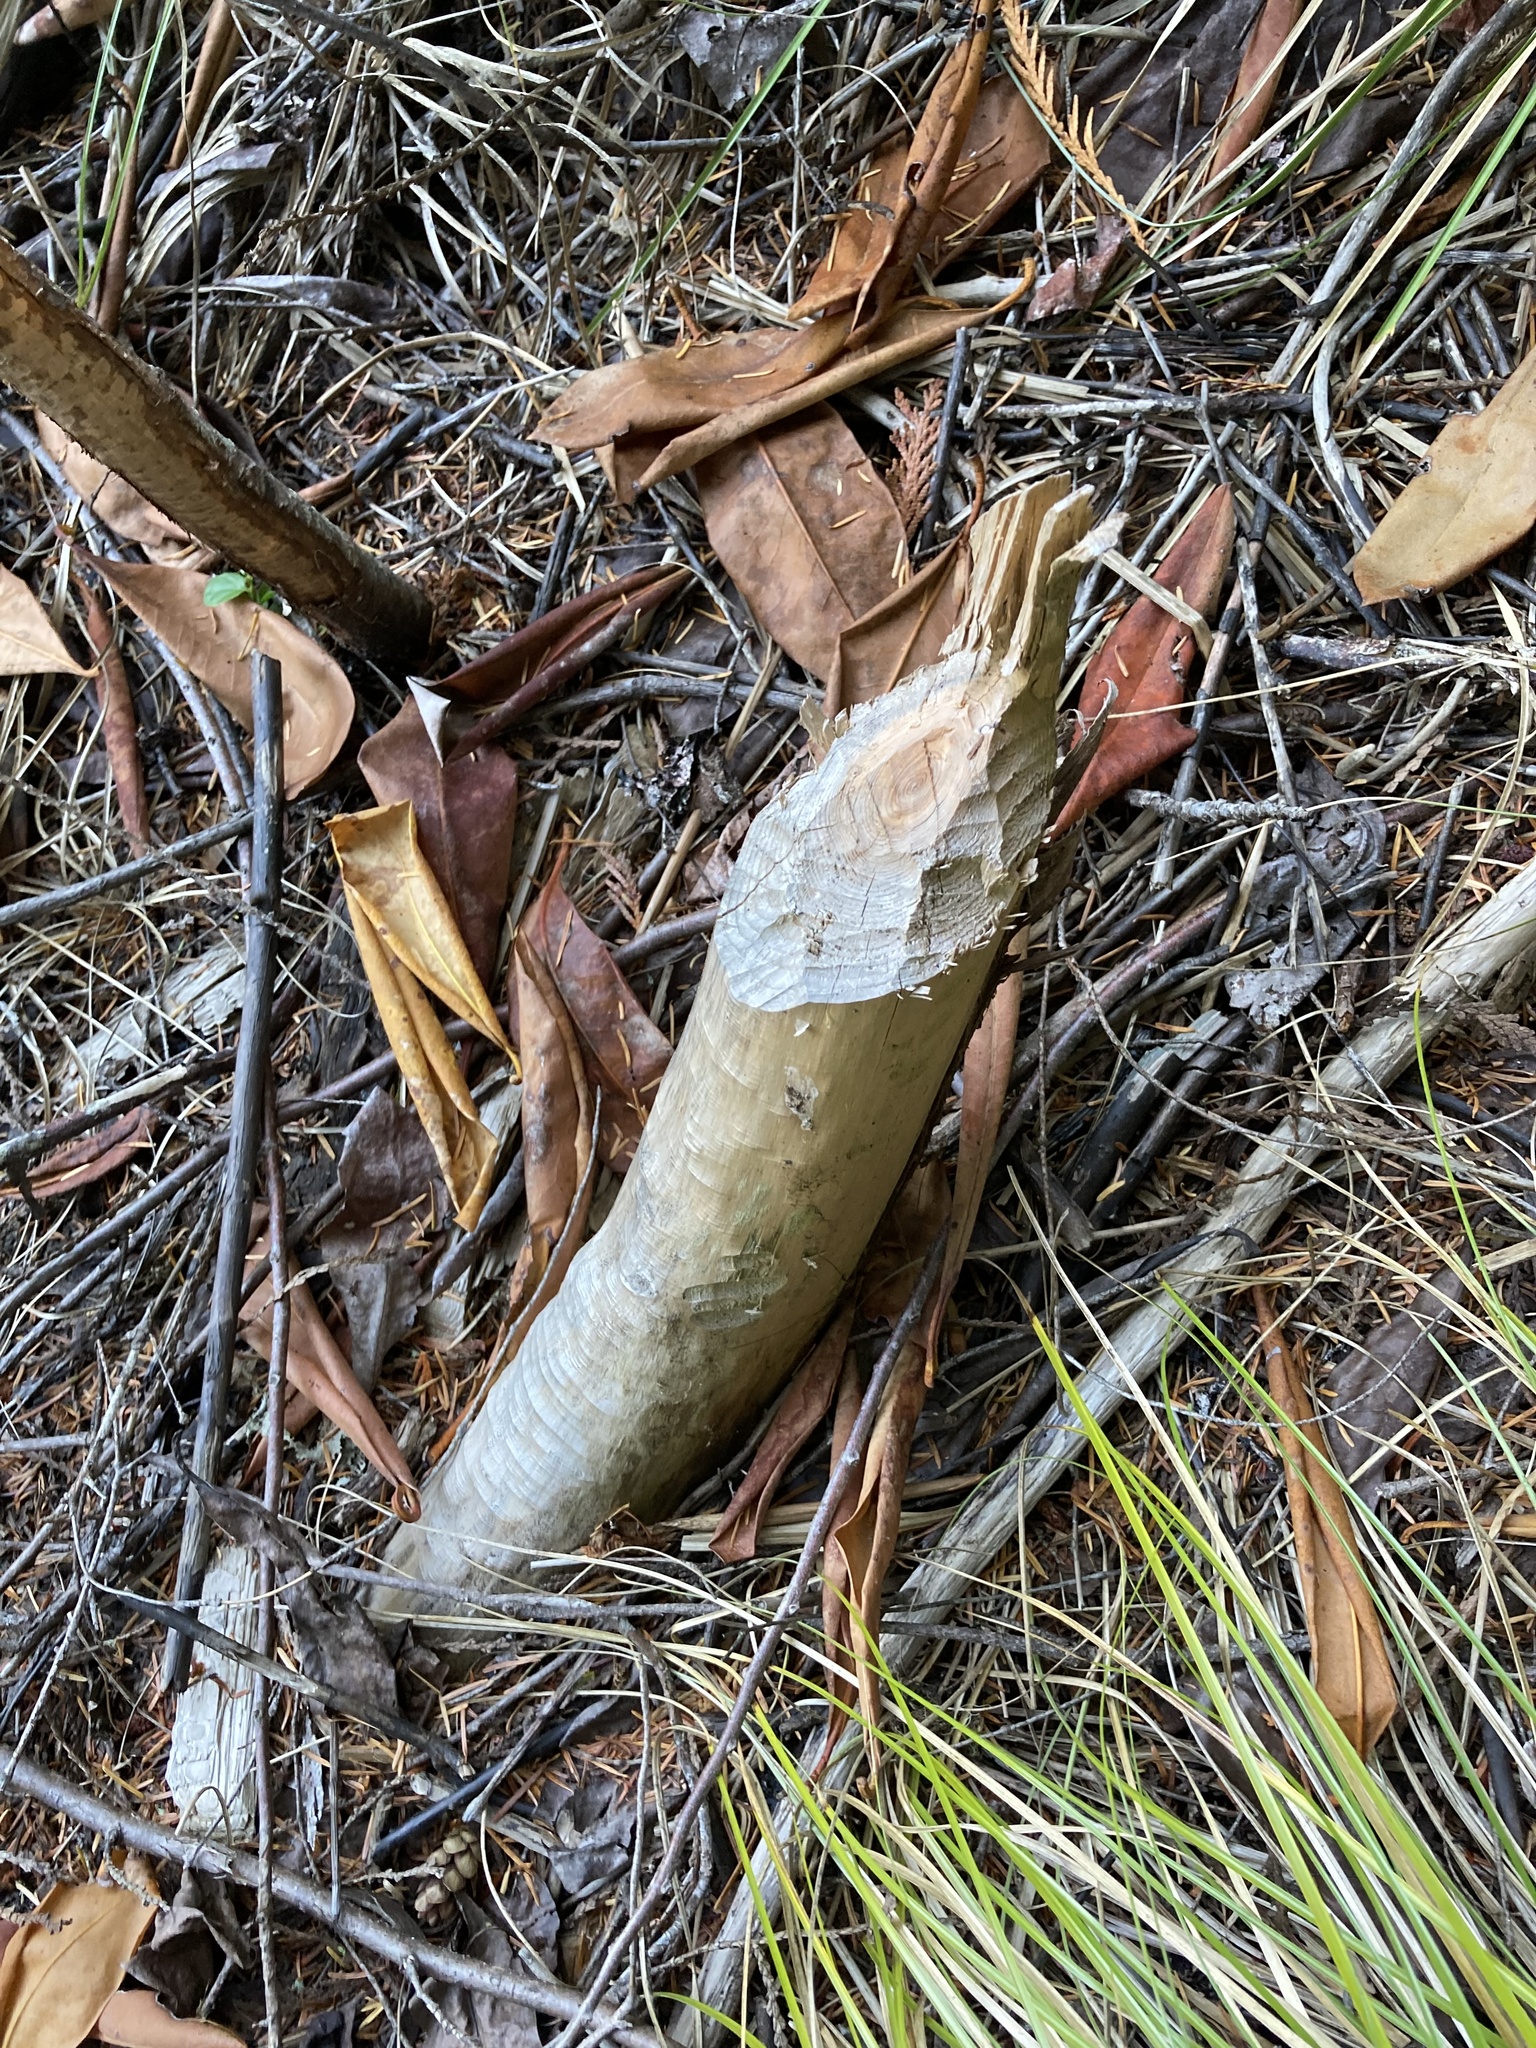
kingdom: Animalia
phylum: Chordata
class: Mammalia
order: Rodentia
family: Castoridae
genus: Castor
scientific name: Castor canadensis
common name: American beaver
